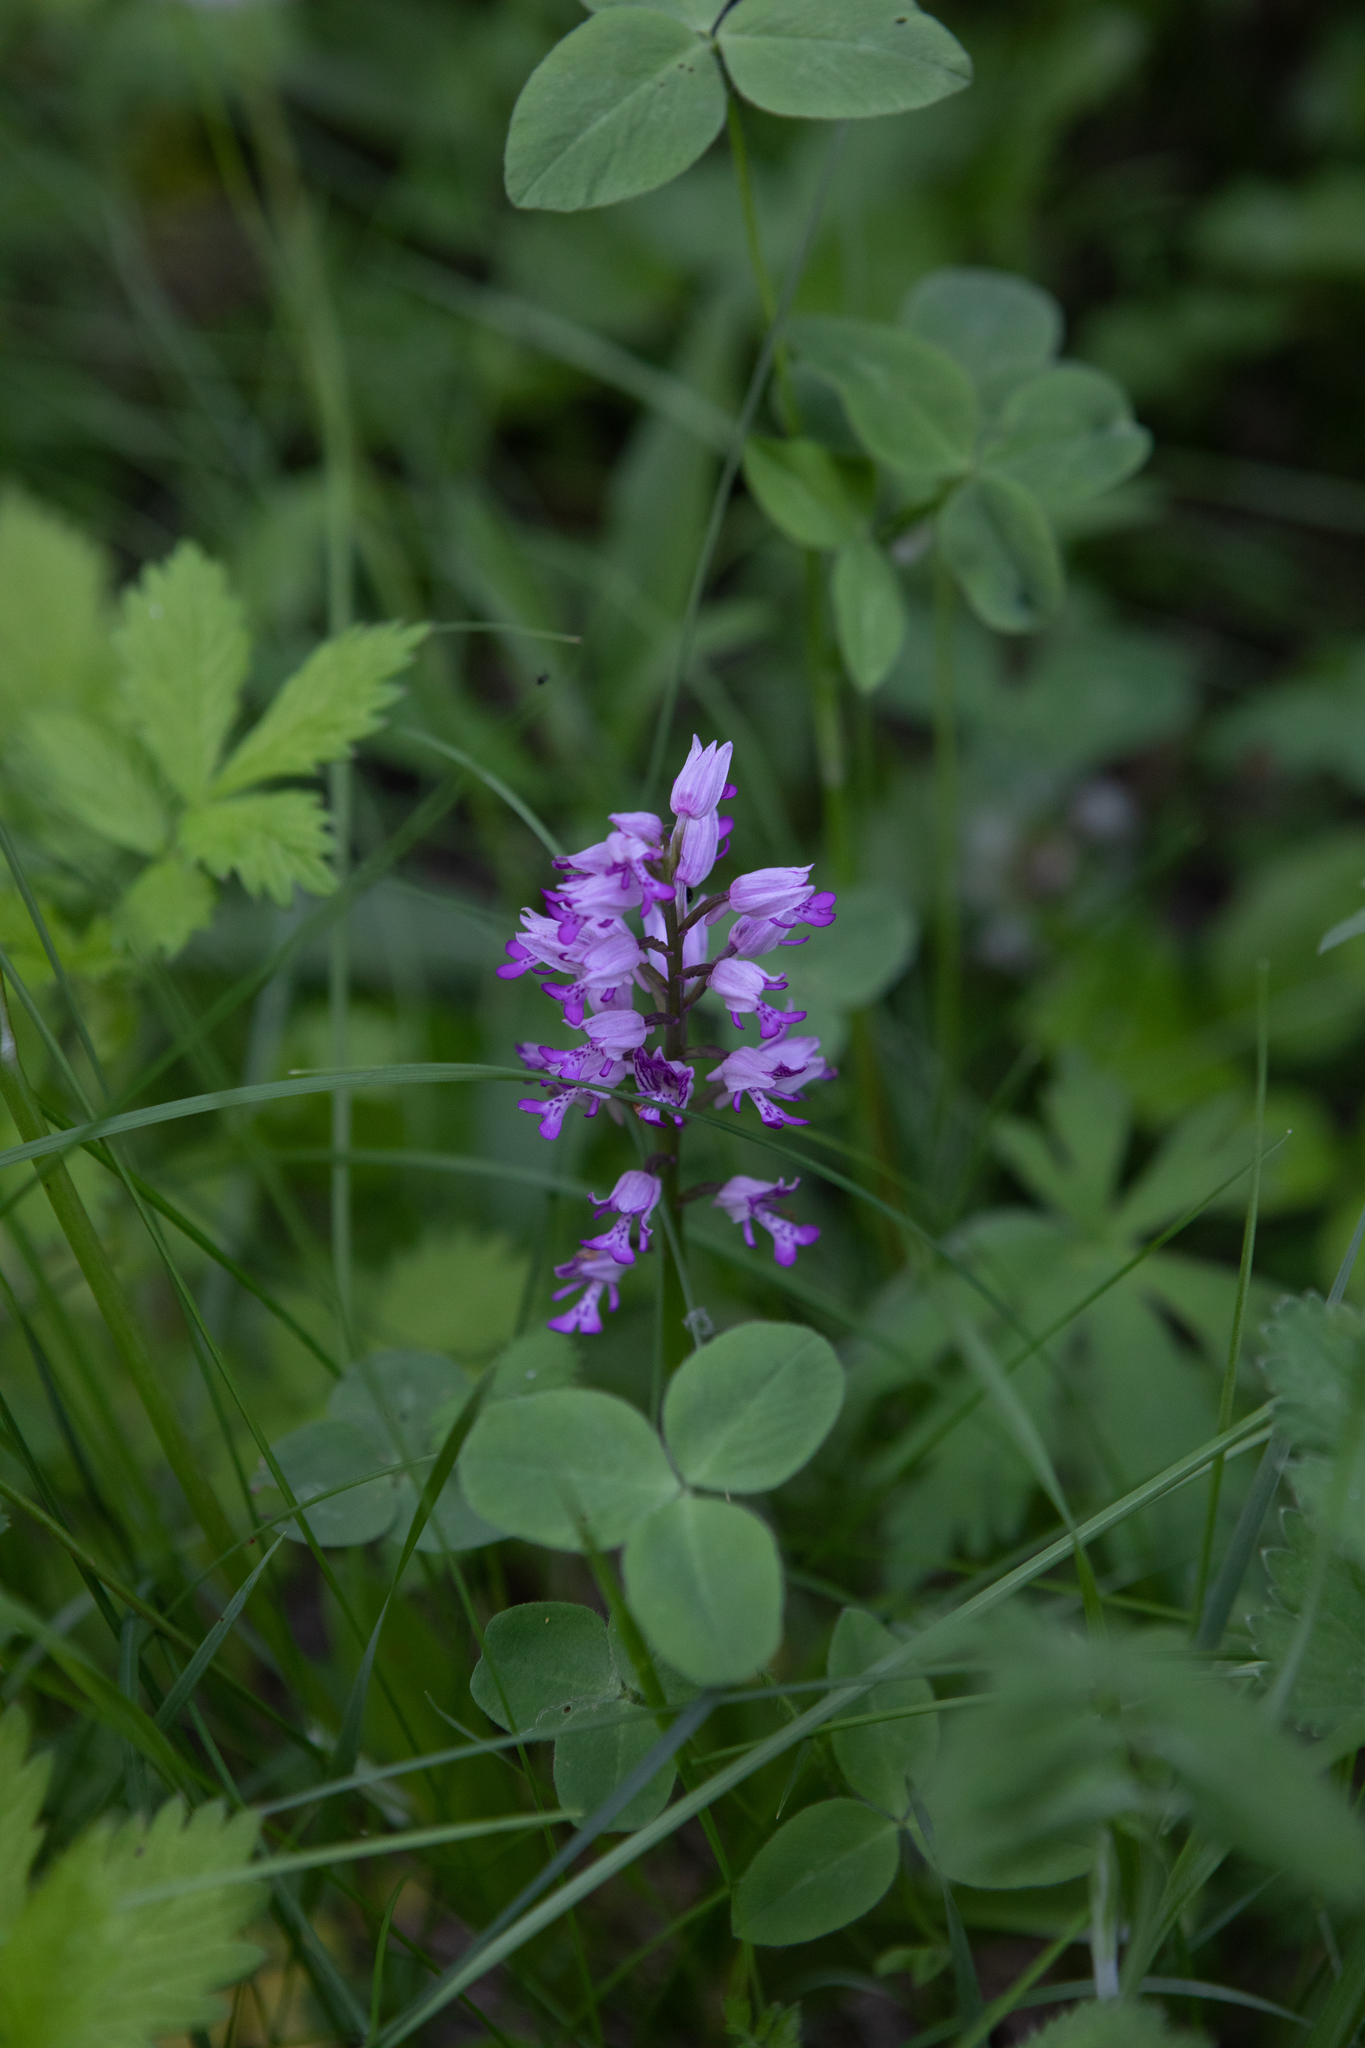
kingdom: Plantae
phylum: Tracheophyta
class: Liliopsida
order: Asparagales
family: Orchidaceae
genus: Orchis
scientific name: Orchis militaris
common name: Military orchid
